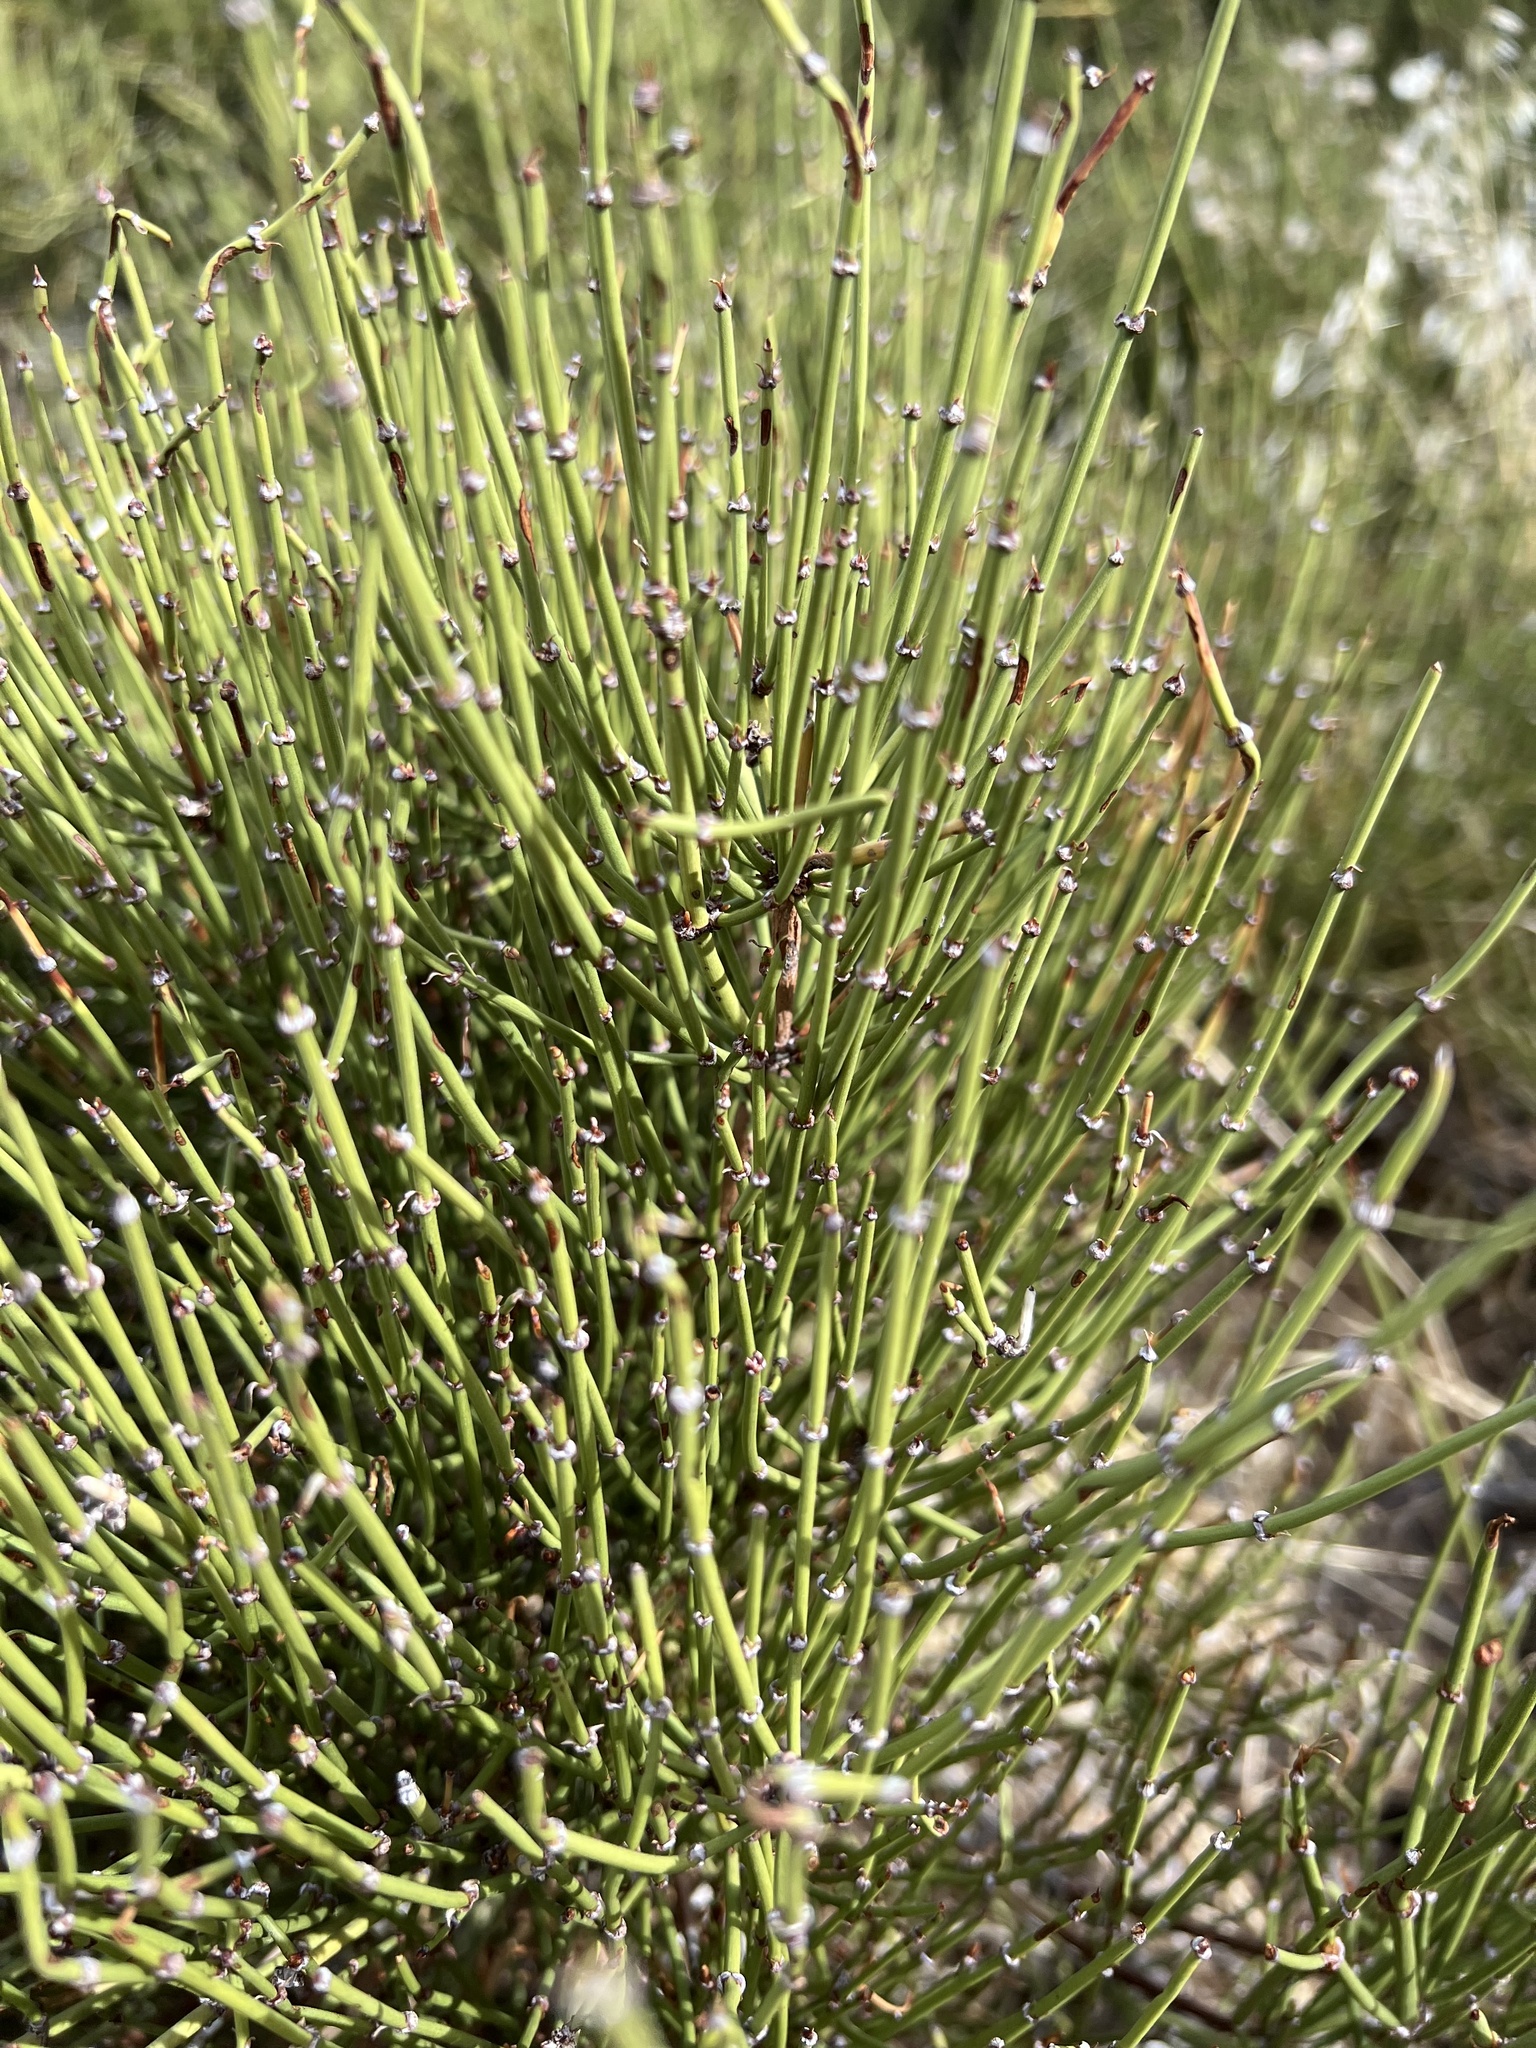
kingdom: Plantae
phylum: Tracheophyta
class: Gnetopsida
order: Ephedrales
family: Ephedraceae
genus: Ephedra
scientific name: Ephedra viridis
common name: Green ephedra
